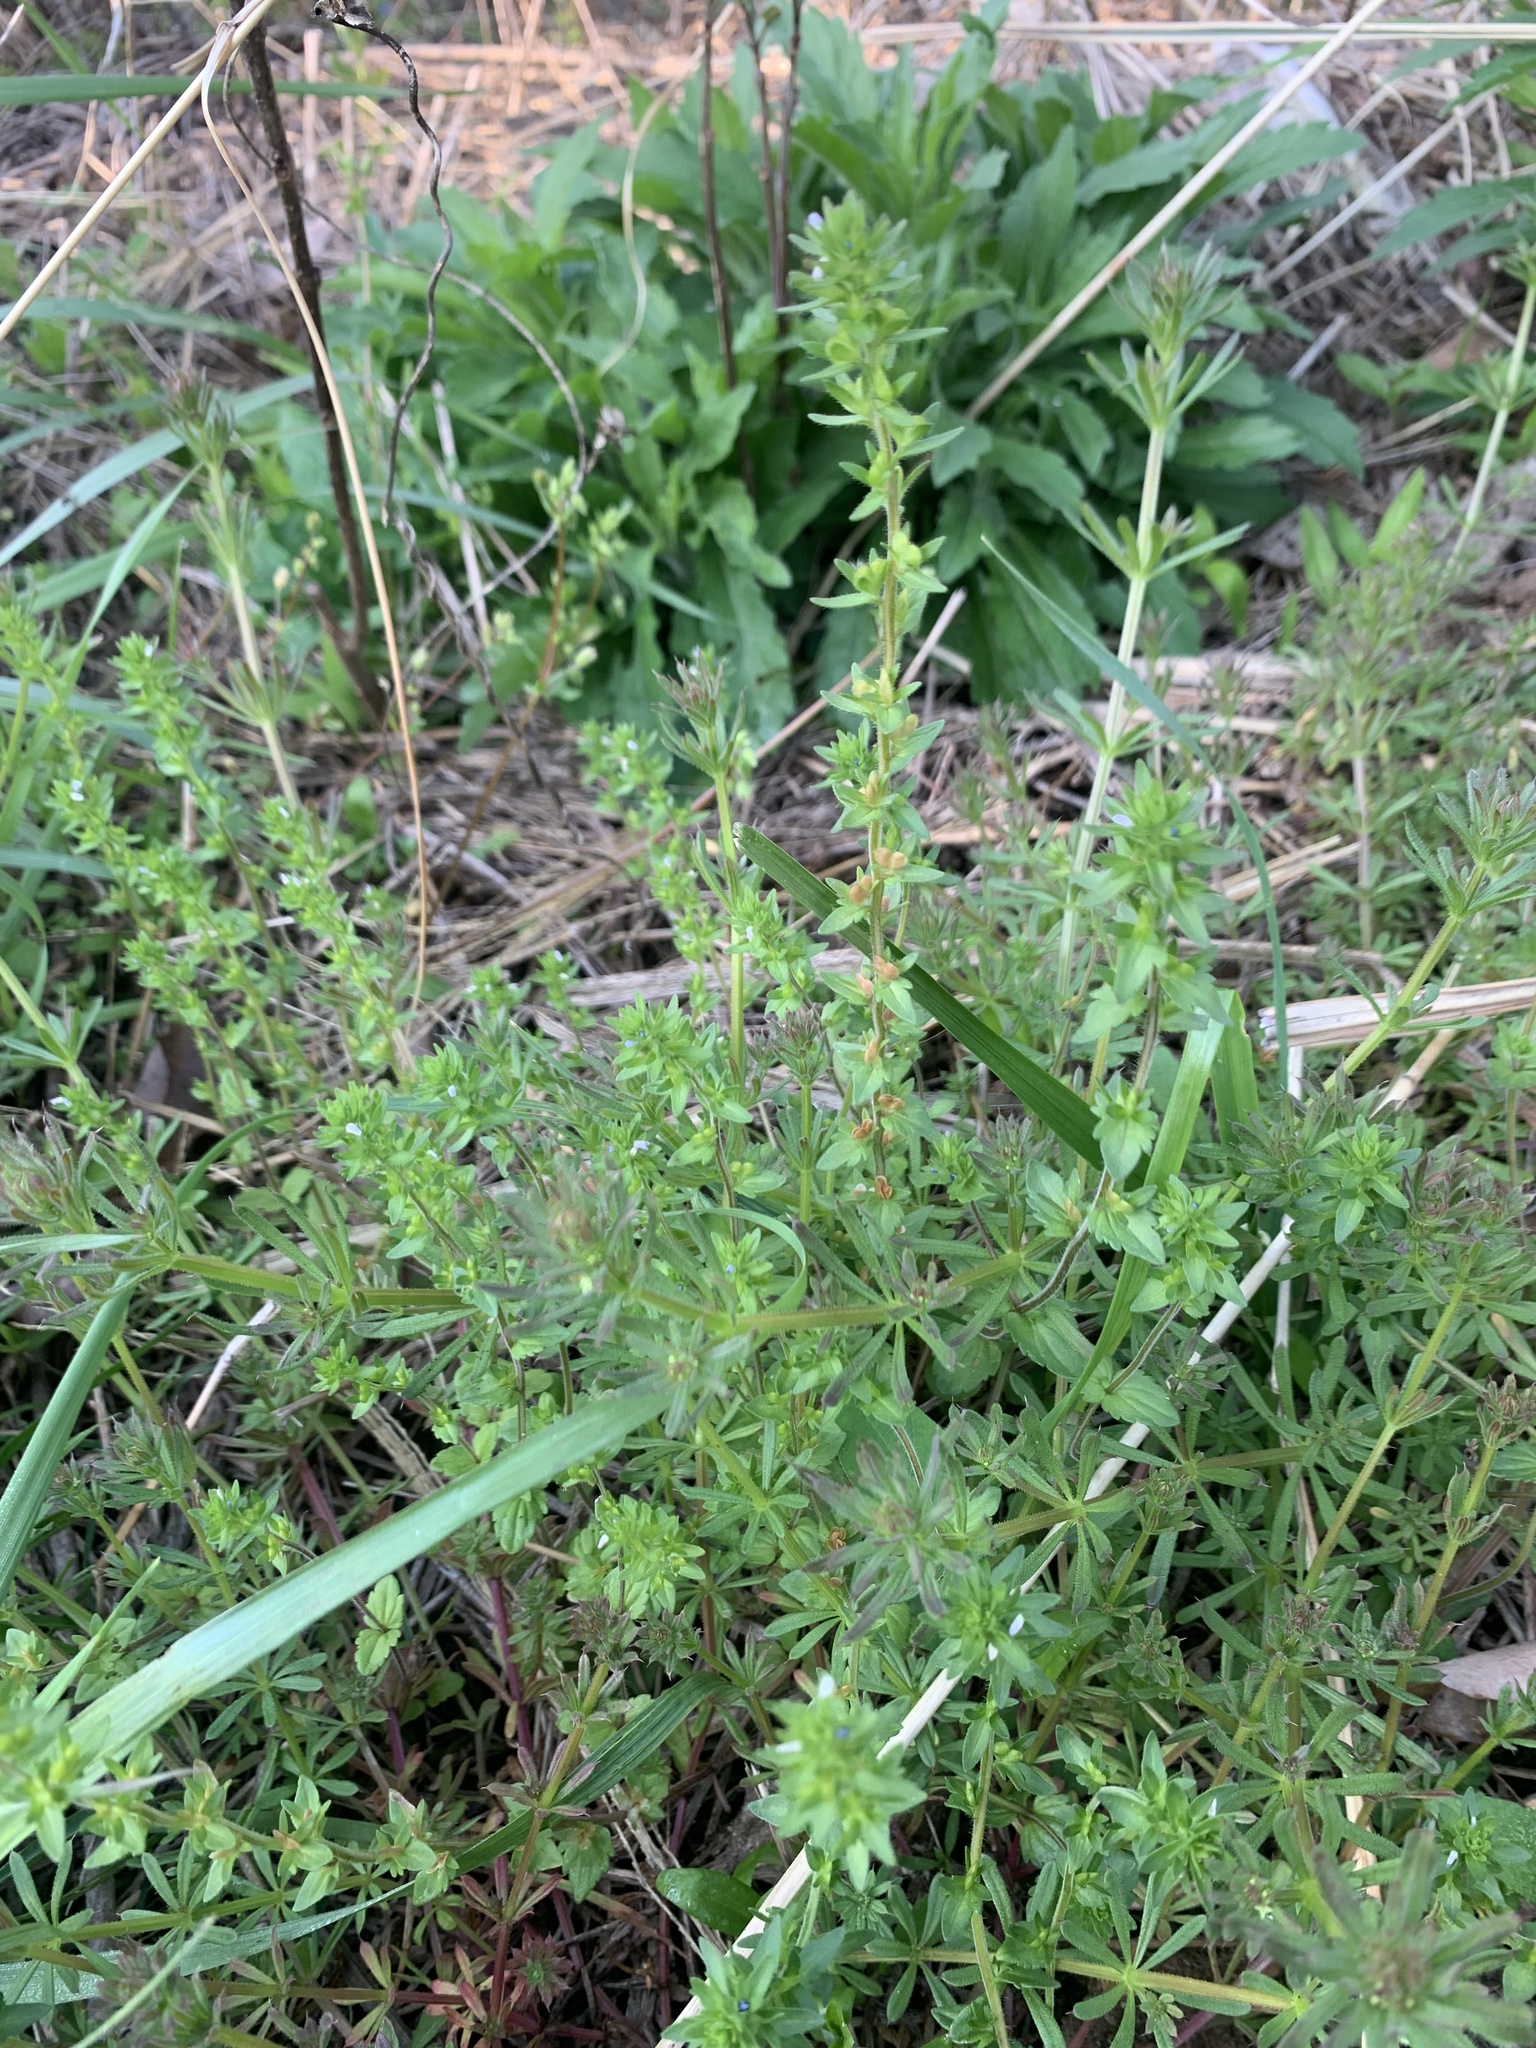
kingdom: Plantae
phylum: Tracheophyta
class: Magnoliopsida
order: Lamiales
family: Plantaginaceae
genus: Veronica
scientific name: Veronica arvensis
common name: Corn speedwell
